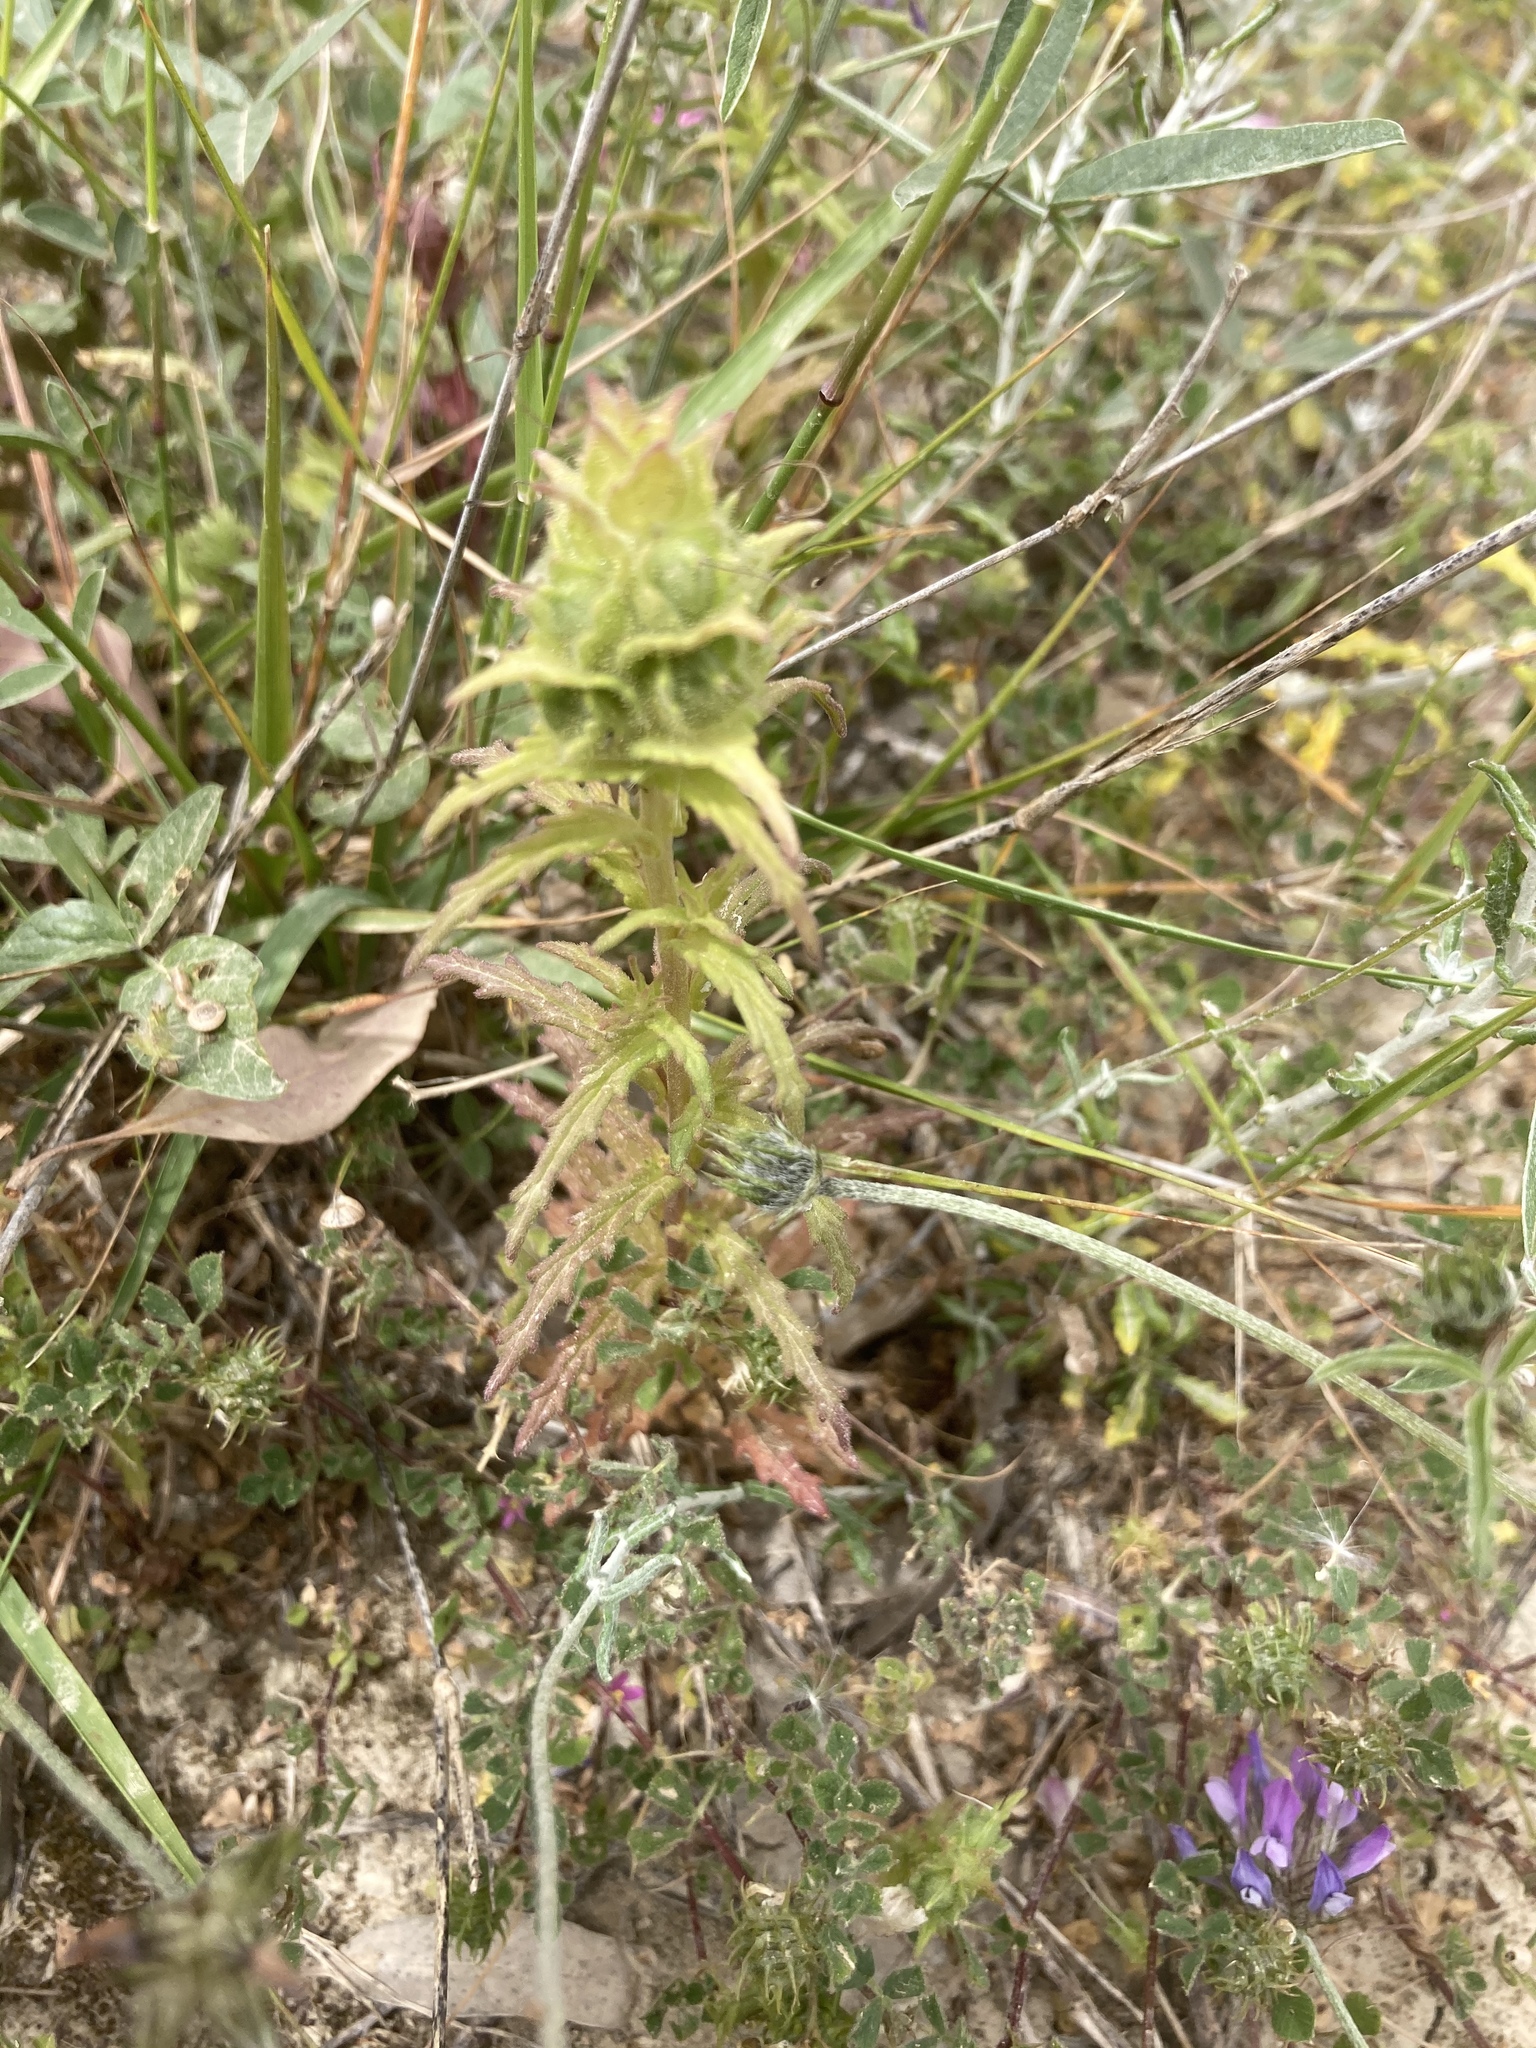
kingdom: Plantae
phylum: Tracheophyta
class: Magnoliopsida
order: Lamiales
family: Orobanchaceae
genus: Bellardia
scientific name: Bellardia trixago
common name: Mediterranean lineseed
